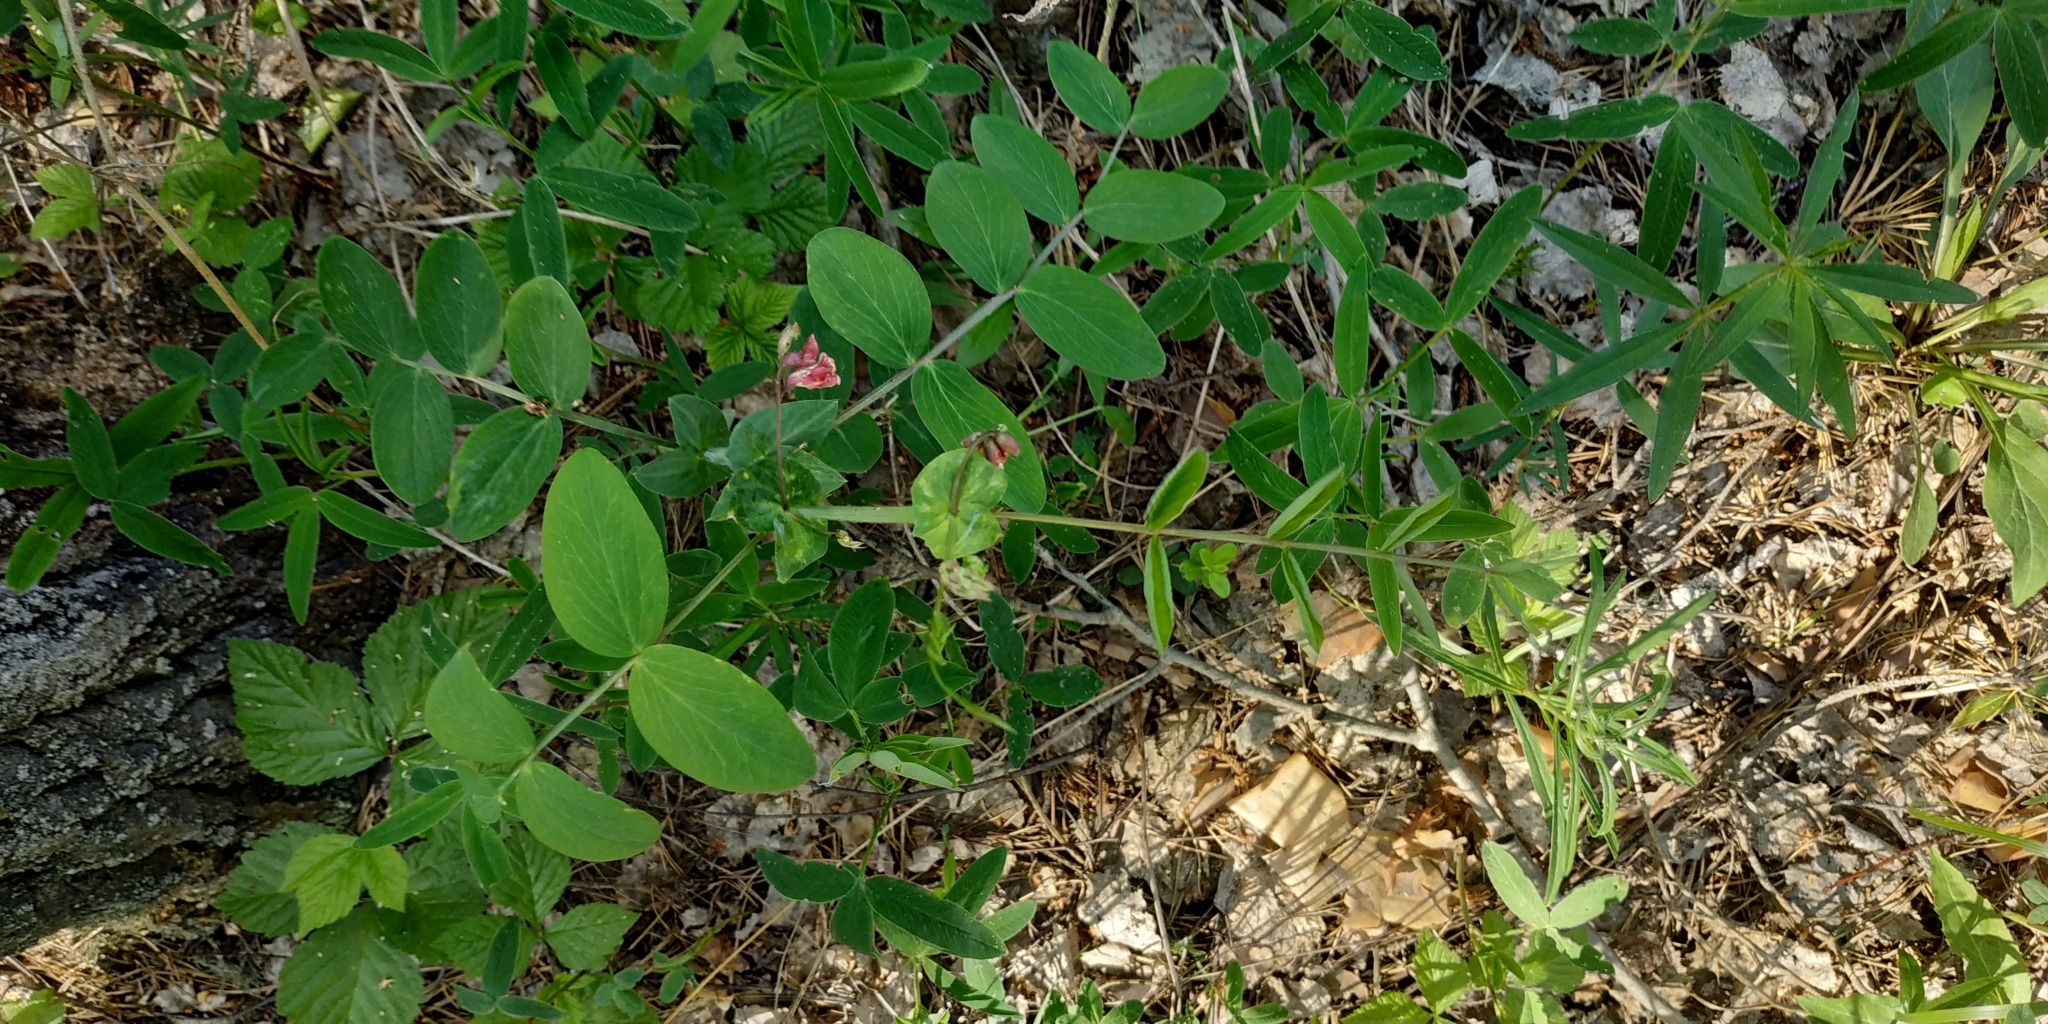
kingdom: Plantae
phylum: Tracheophyta
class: Magnoliopsida
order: Fabales
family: Fabaceae
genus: Lathyrus
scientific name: Lathyrus pisiformis
